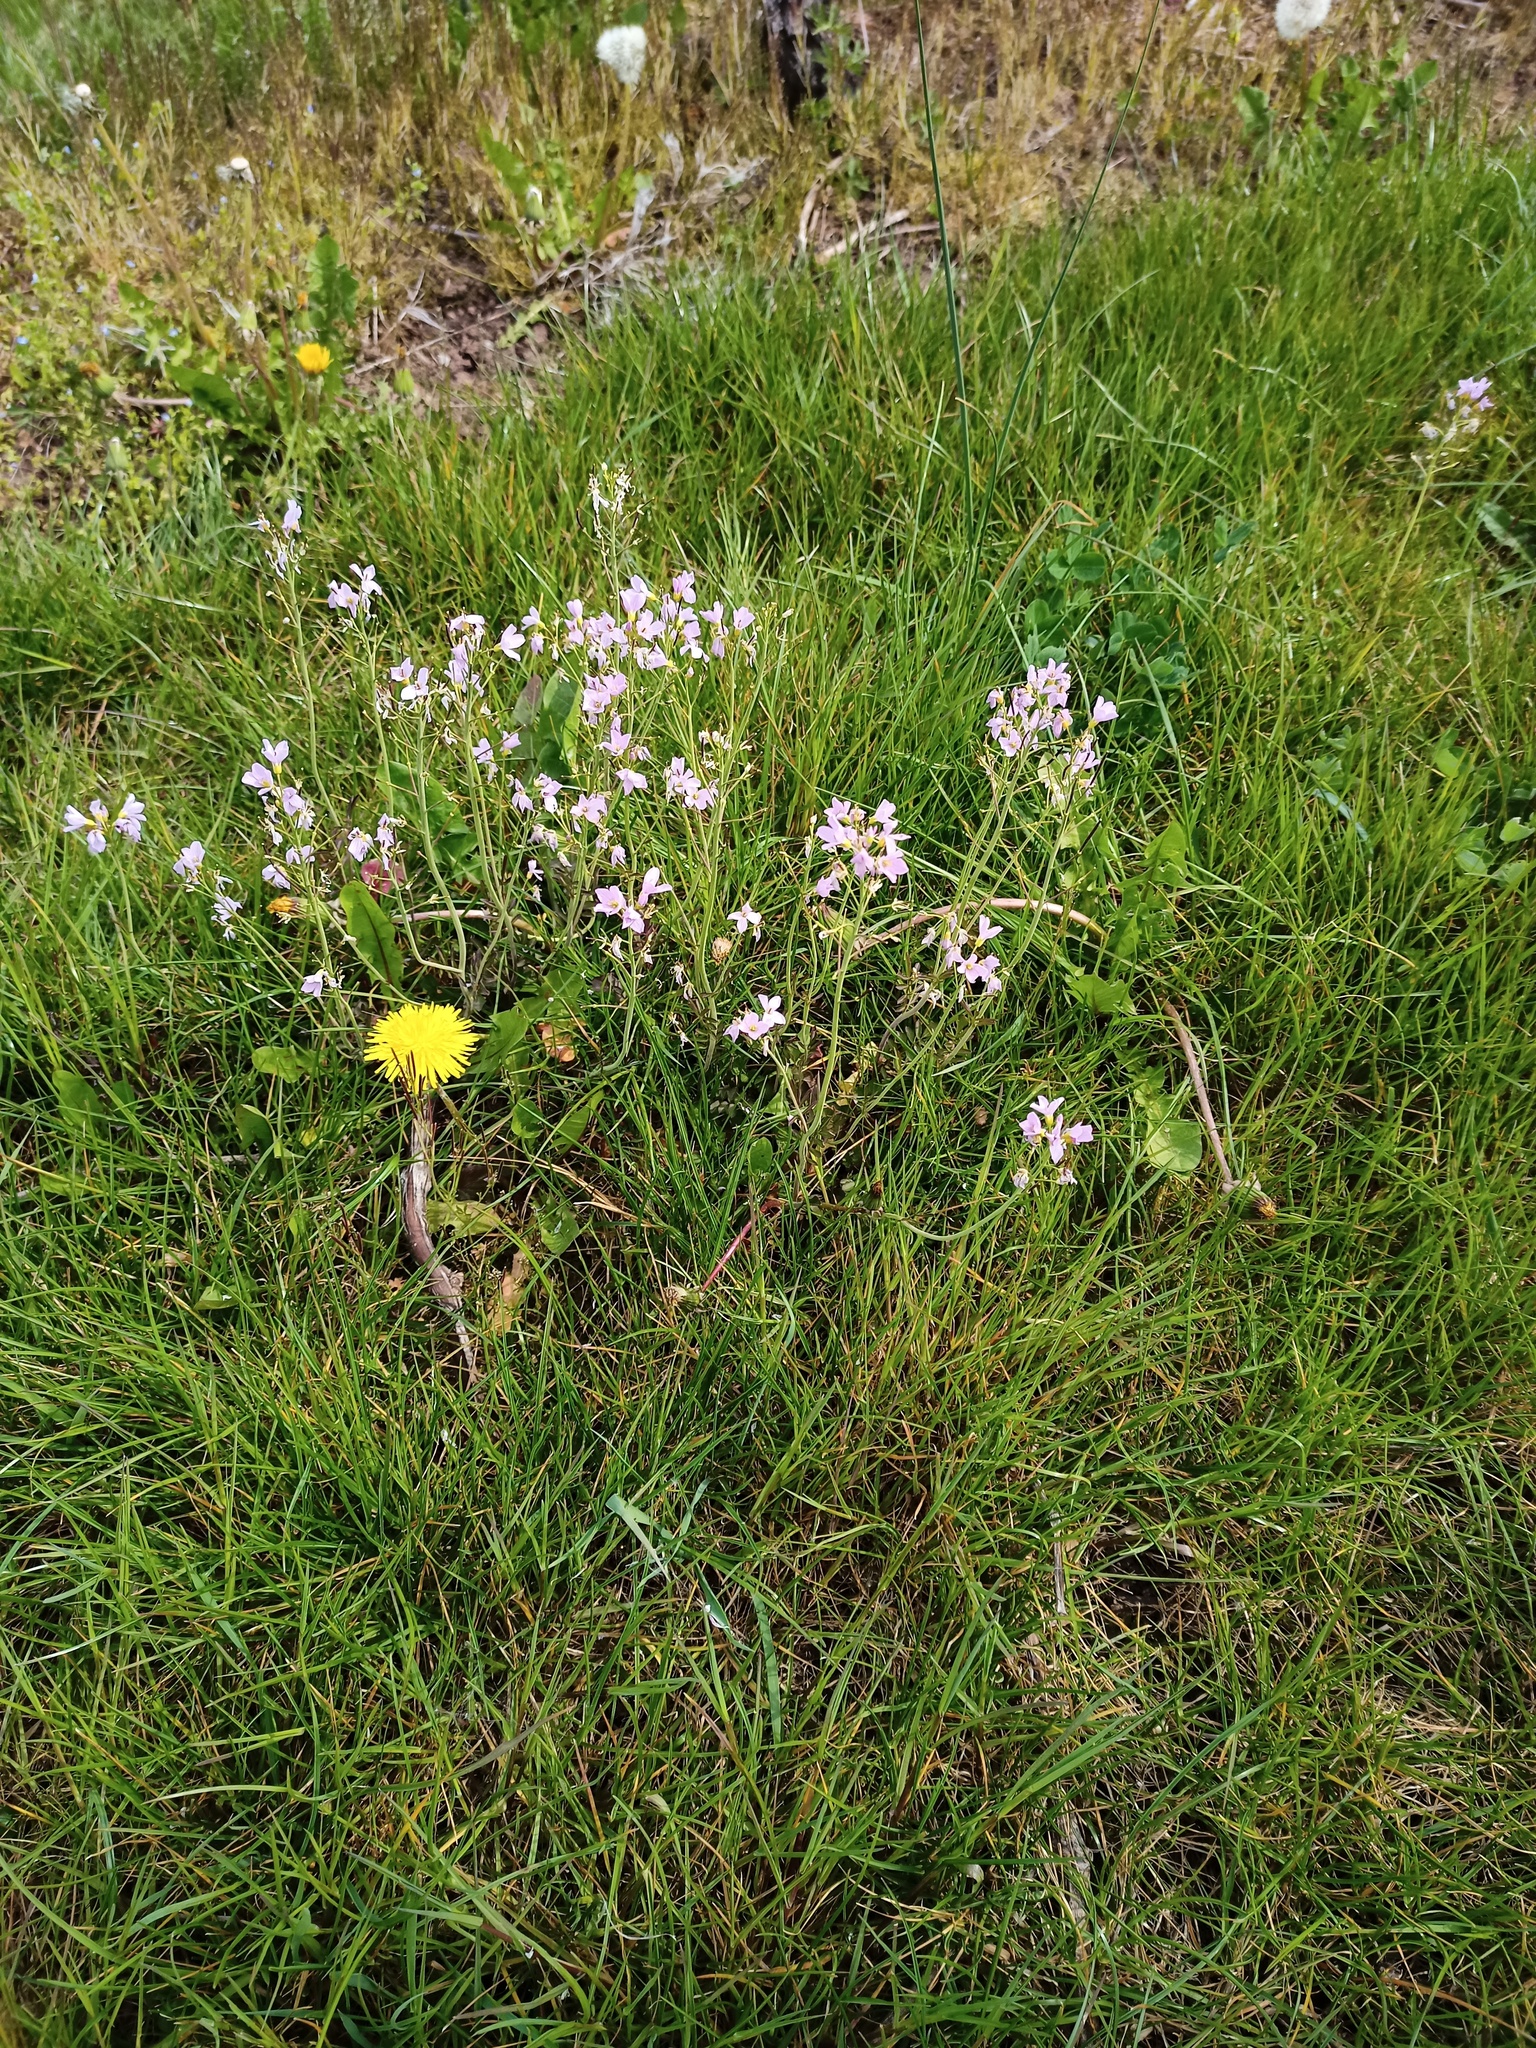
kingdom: Plantae
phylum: Tracheophyta
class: Magnoliopsida
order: Brassicales
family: Brassicaceae
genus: Cardamine
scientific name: Cardamine pratensis
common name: Cuckoo flower
